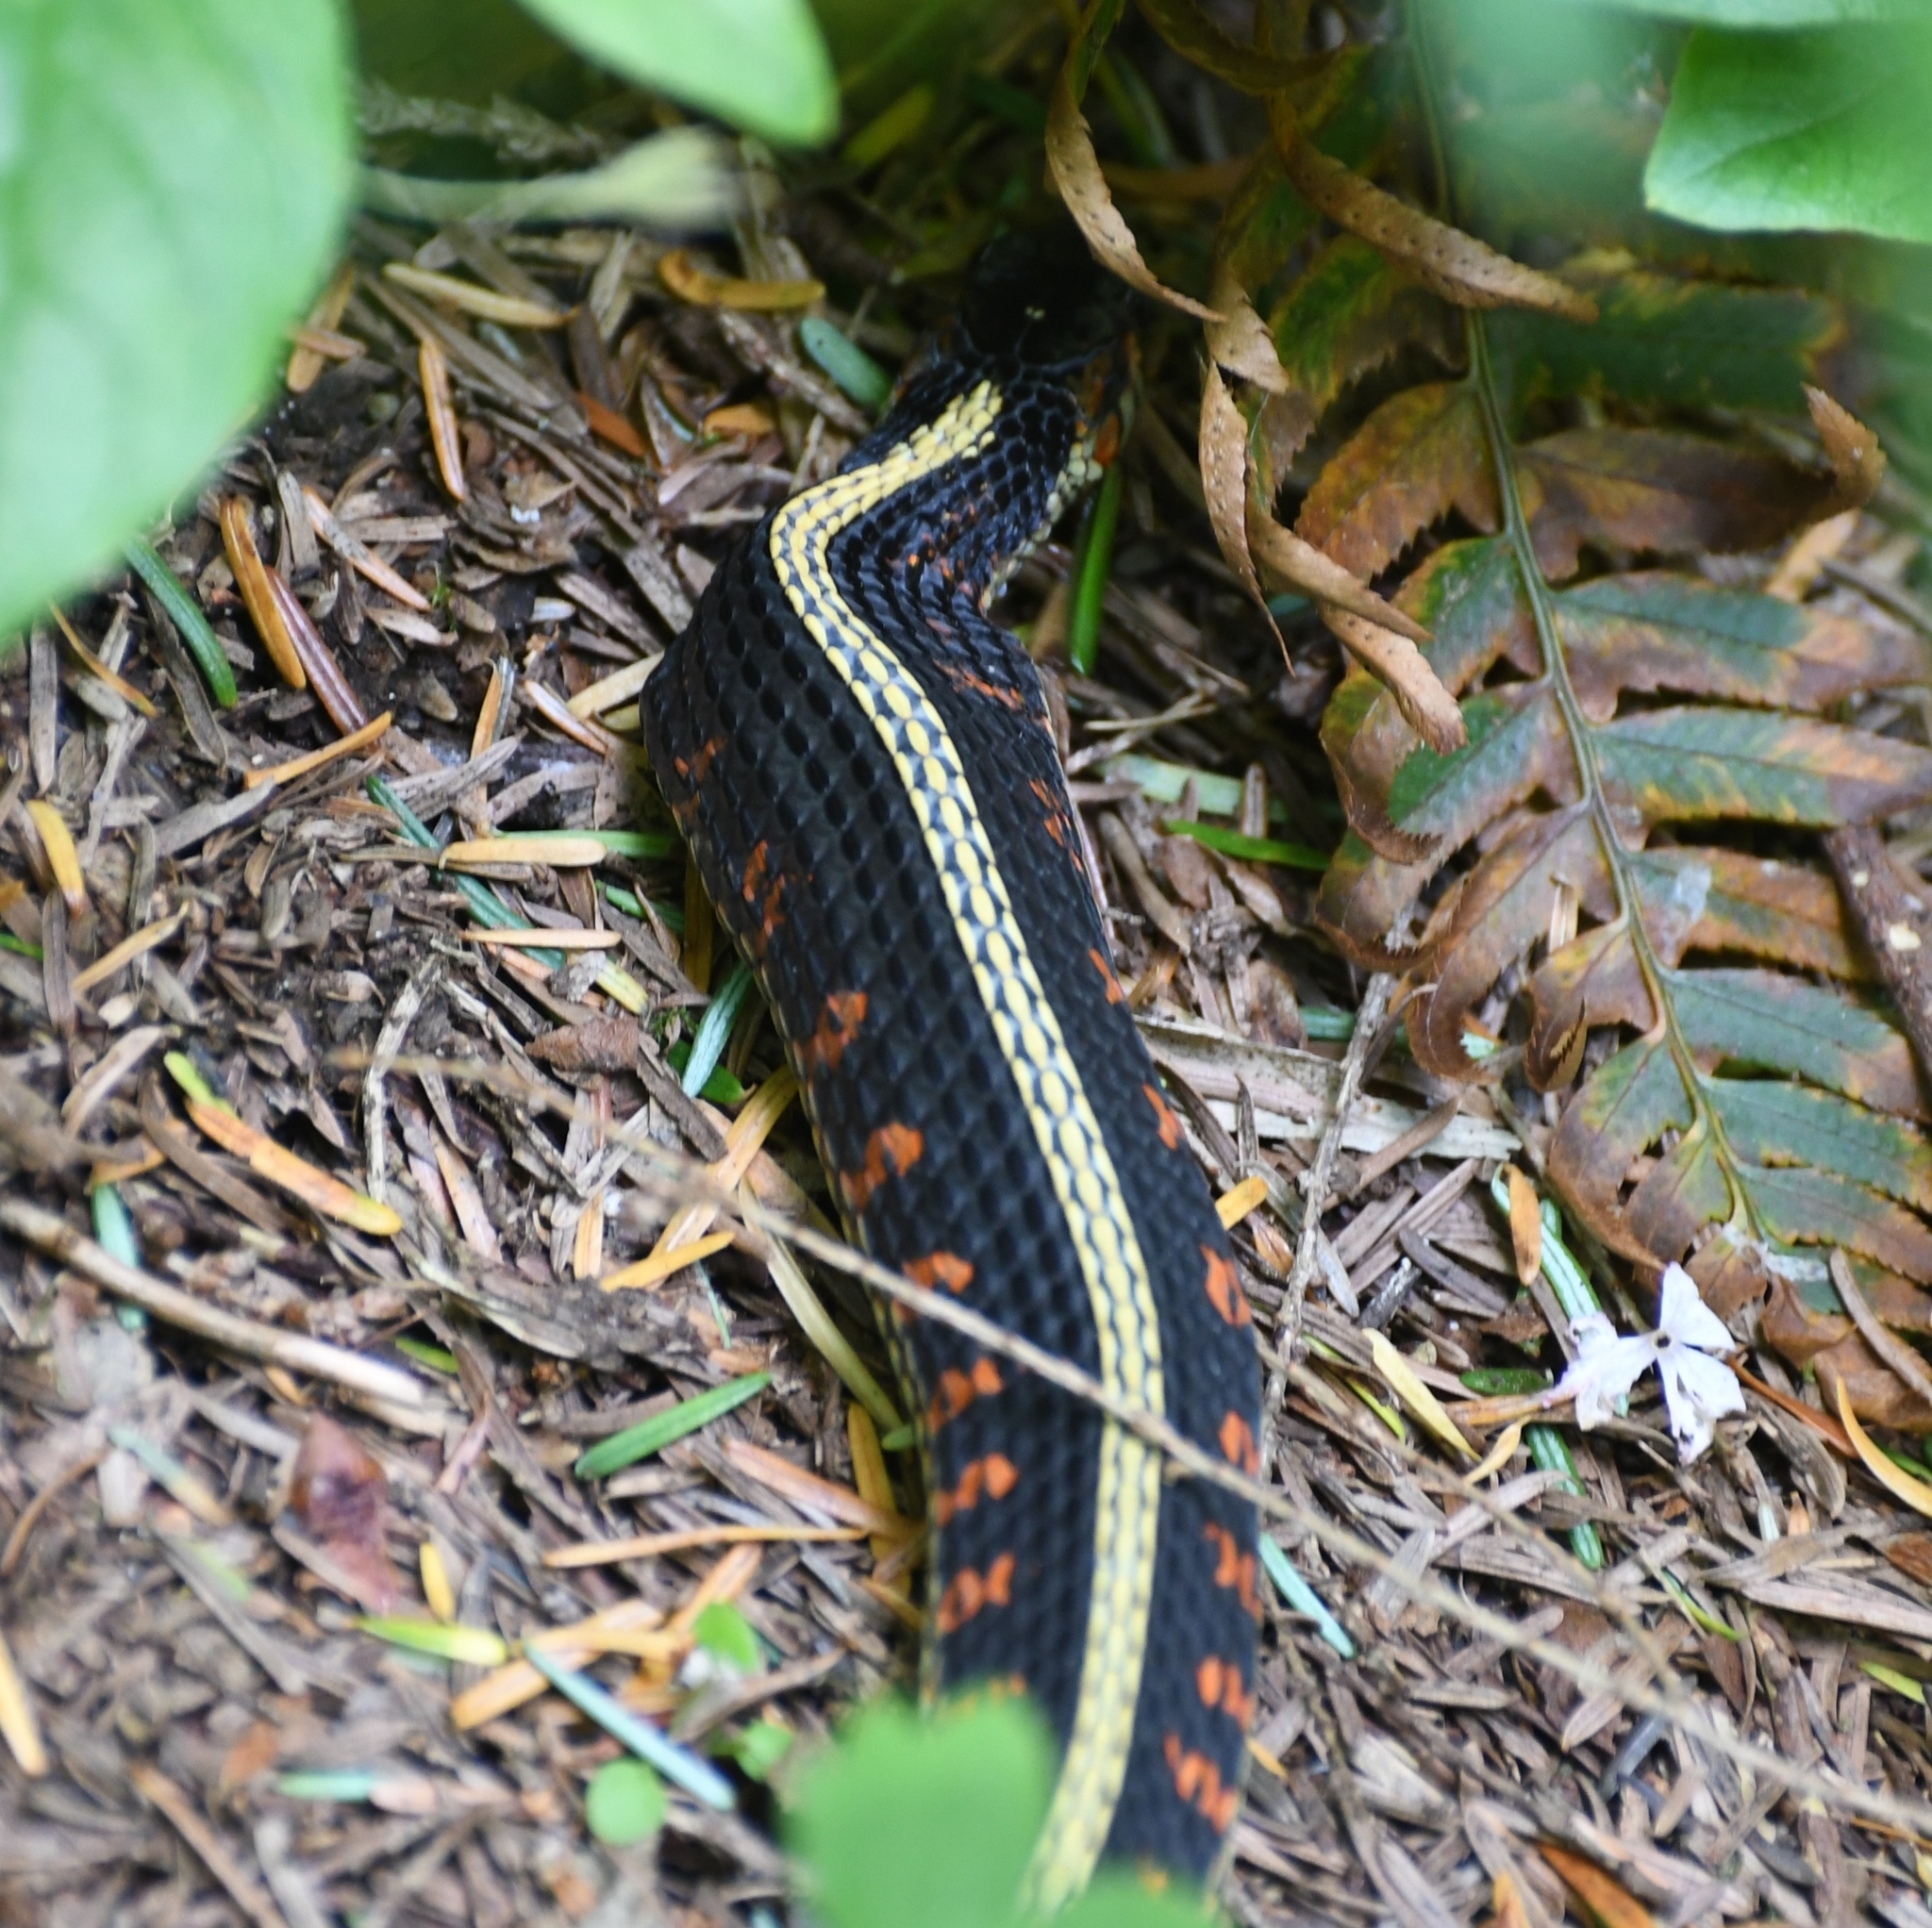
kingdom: Animalia
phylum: Chordata
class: Squamata
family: Colubridae
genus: Thamnophis
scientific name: Thamnophis sirtalis
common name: Common garter snake
